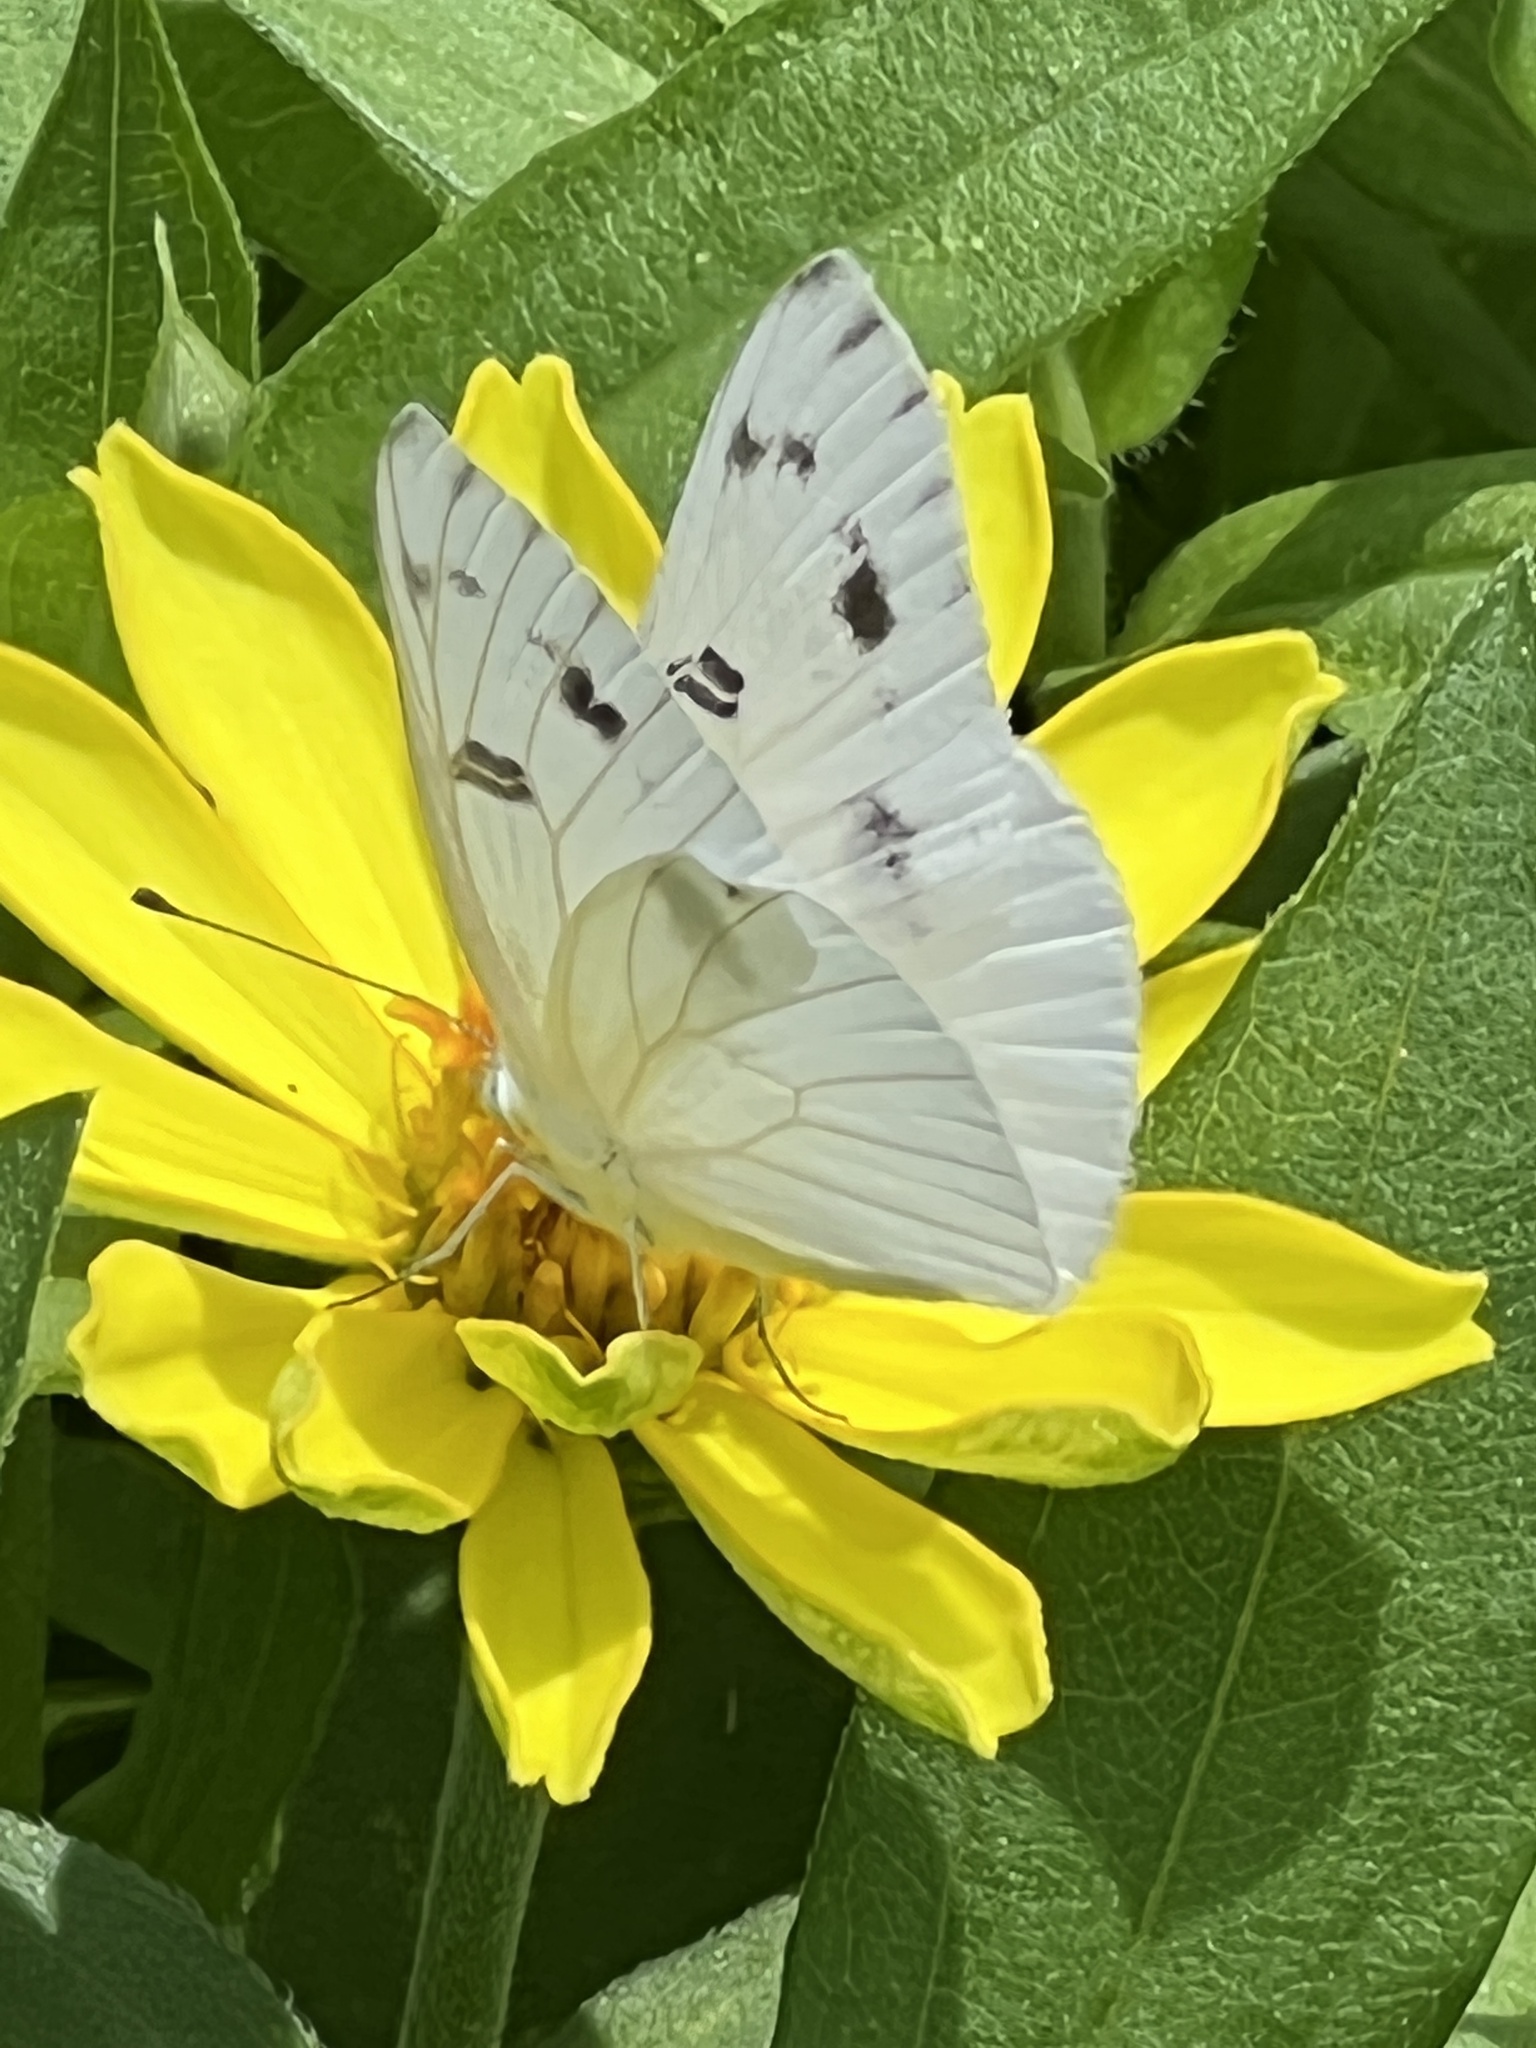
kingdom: Animalia
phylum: Arthropoda
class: Insecta
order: Lepidoptera
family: Pieridae
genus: Pontia
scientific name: Pontia protodice
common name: Checkered white
